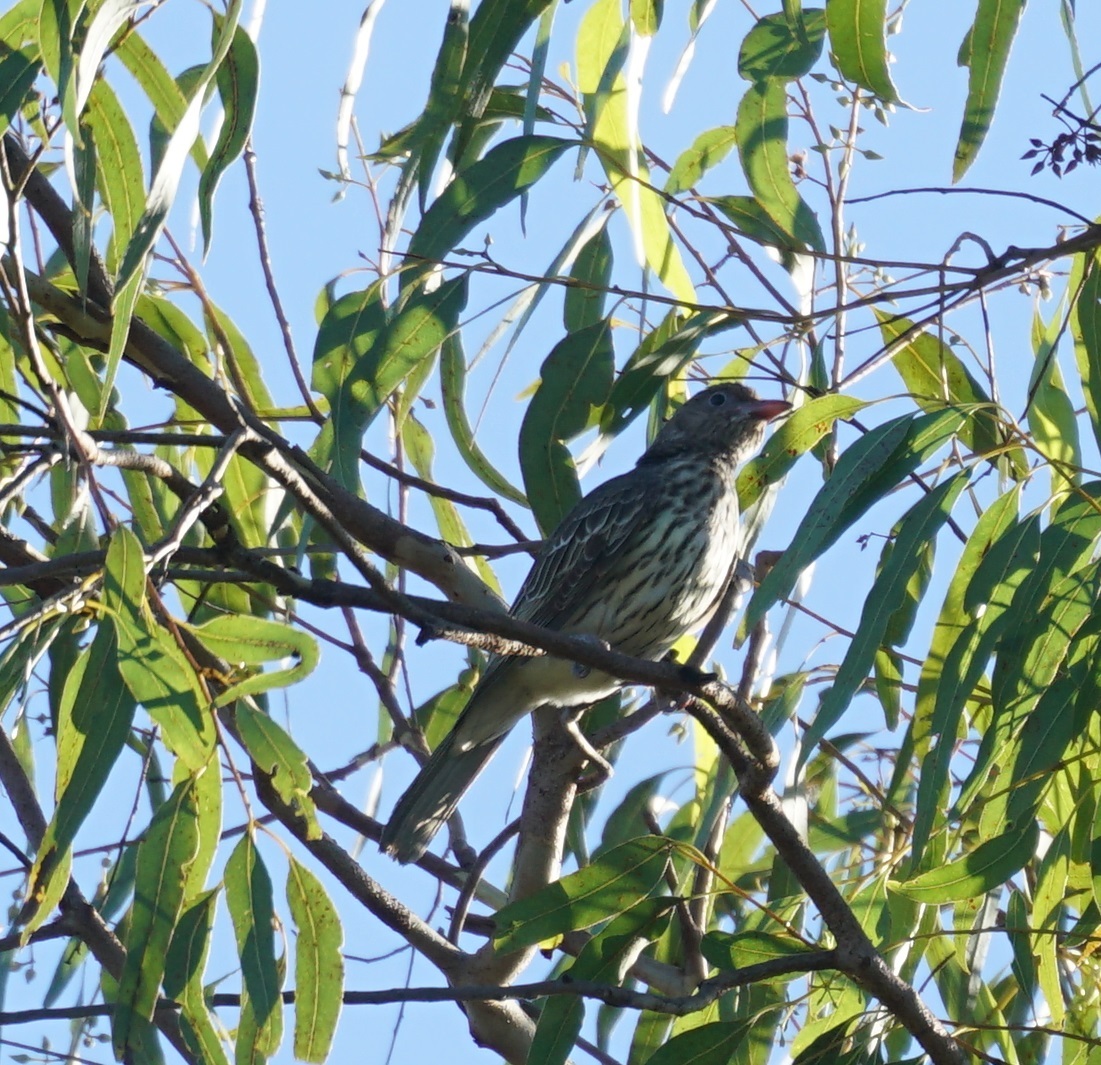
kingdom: Animalia
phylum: Chordata
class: Aves
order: Passeriformes
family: Oriolidae
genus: Sphecotheres
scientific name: Sphecotheres vieilloti
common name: Australasian figbird
